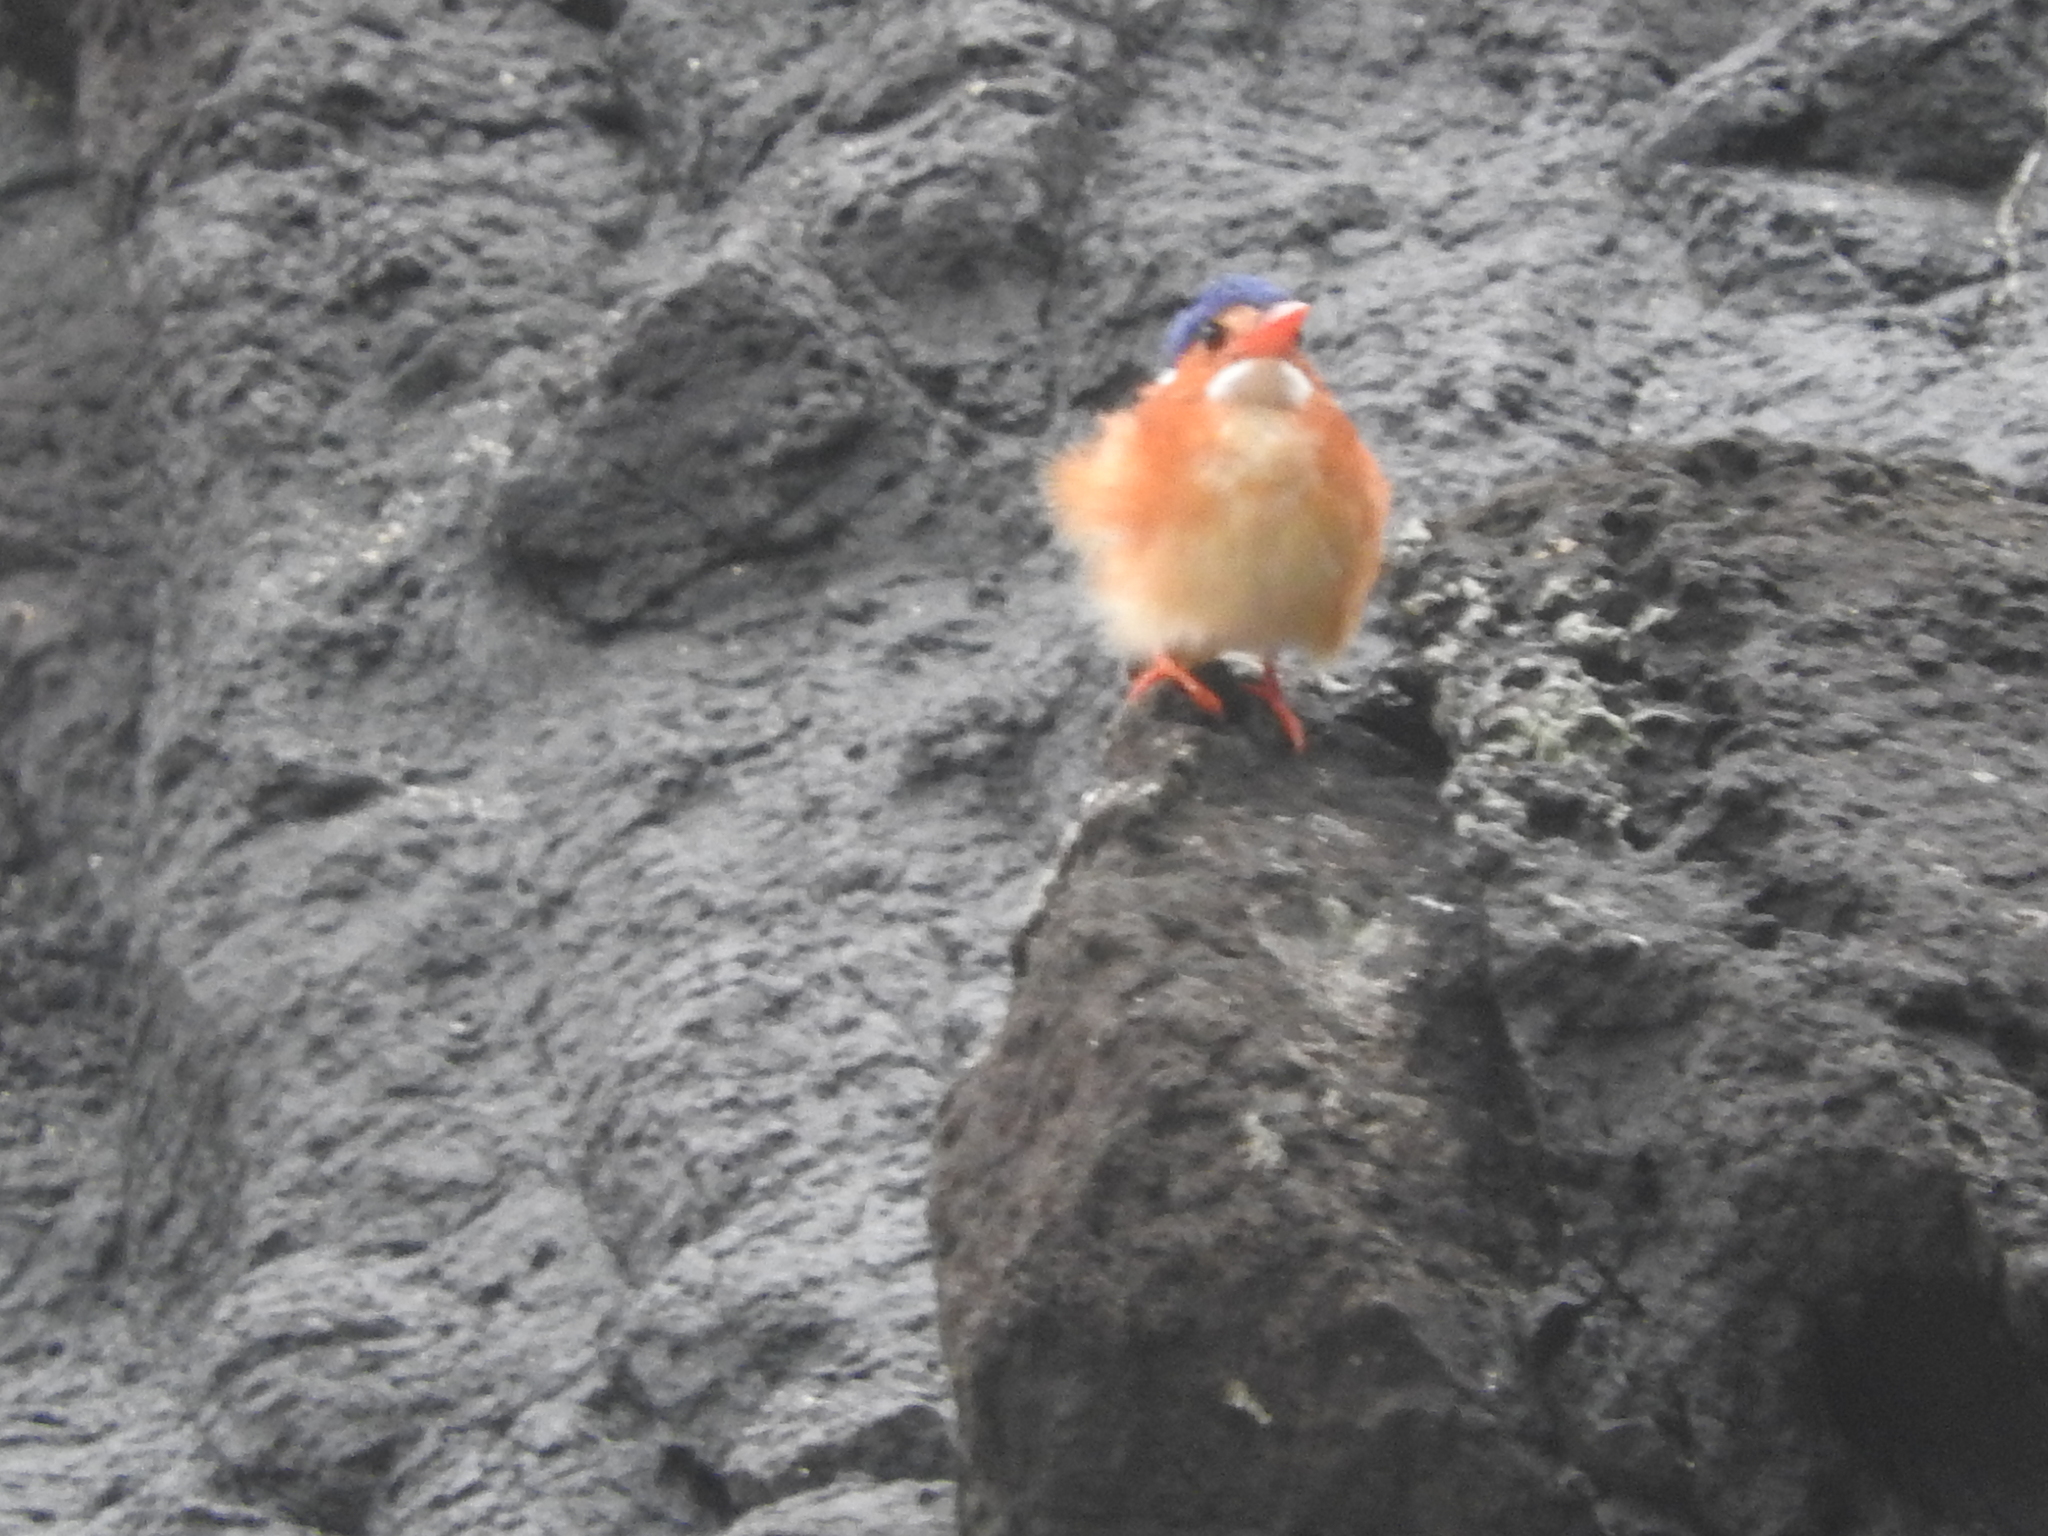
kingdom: Animalia
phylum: Chordata
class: Aves
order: Coraciiformes
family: Alcedinidae
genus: Corythornis
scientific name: Corythornis cristatus
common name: Malachite kingfisher
